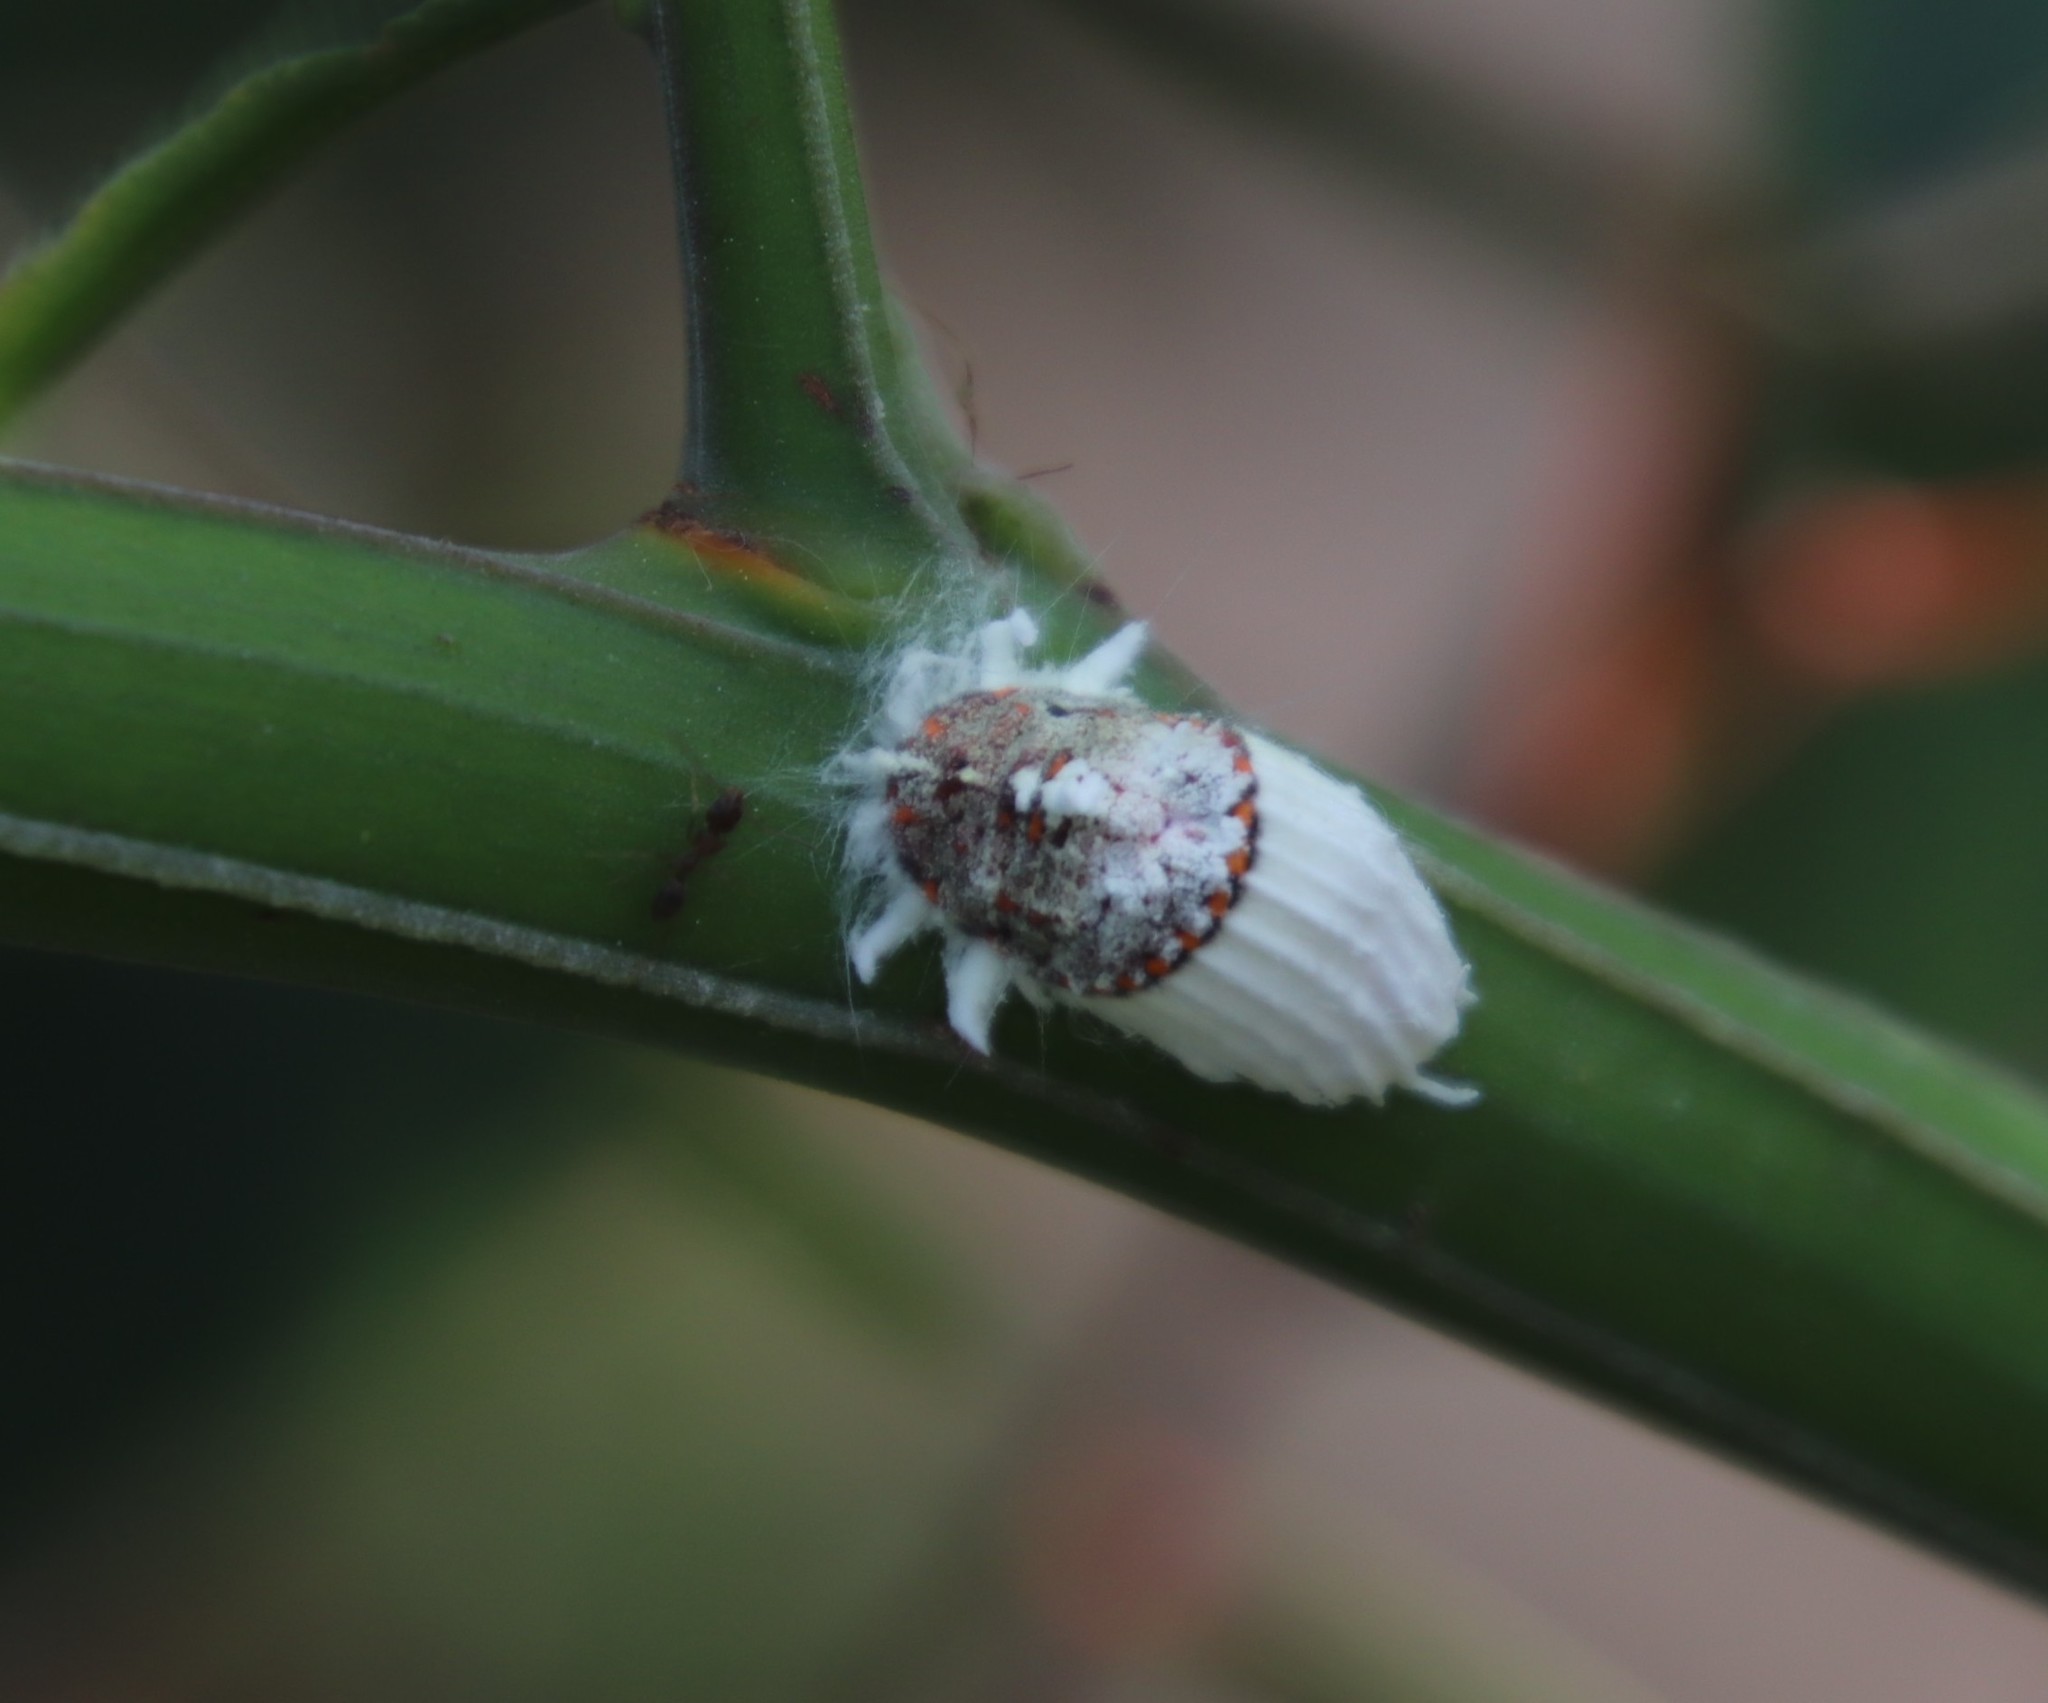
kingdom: Animalia
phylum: Arthropoda
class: Insecta
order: Hemiptera
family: Margarodidae
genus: Icerya
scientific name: Icerya purchasi
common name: Cottony cushion scale
